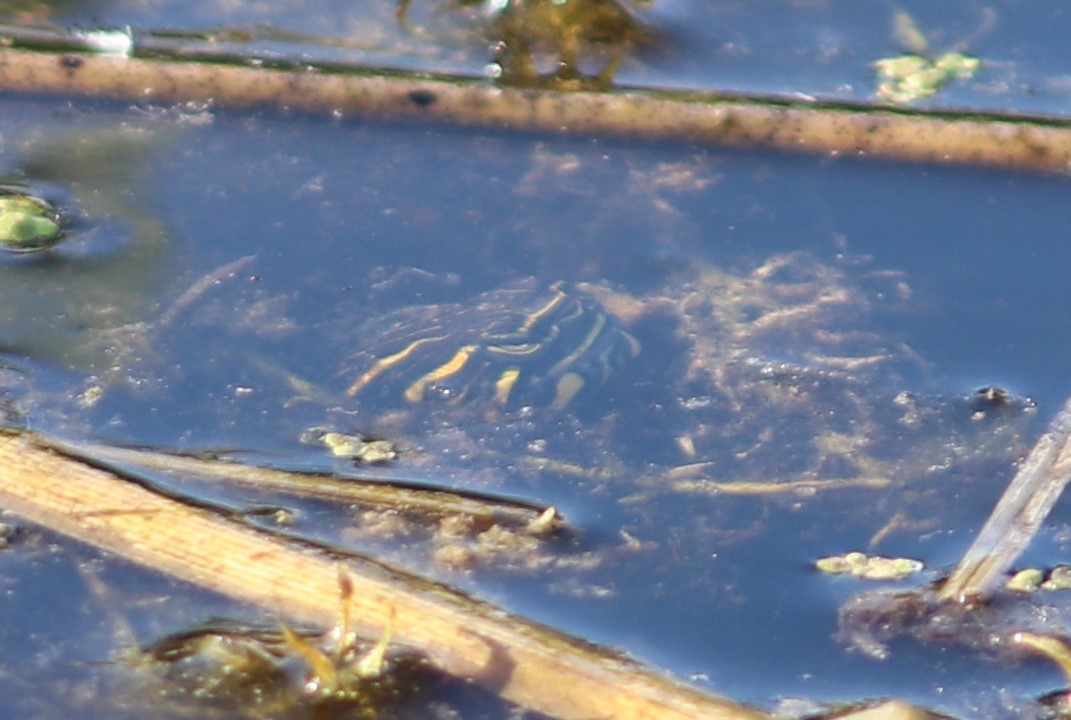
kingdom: Animalia
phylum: Chordata
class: Testudines
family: Emydidae
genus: Chrysemys
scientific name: Chrysemys picta
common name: Painted turtle
